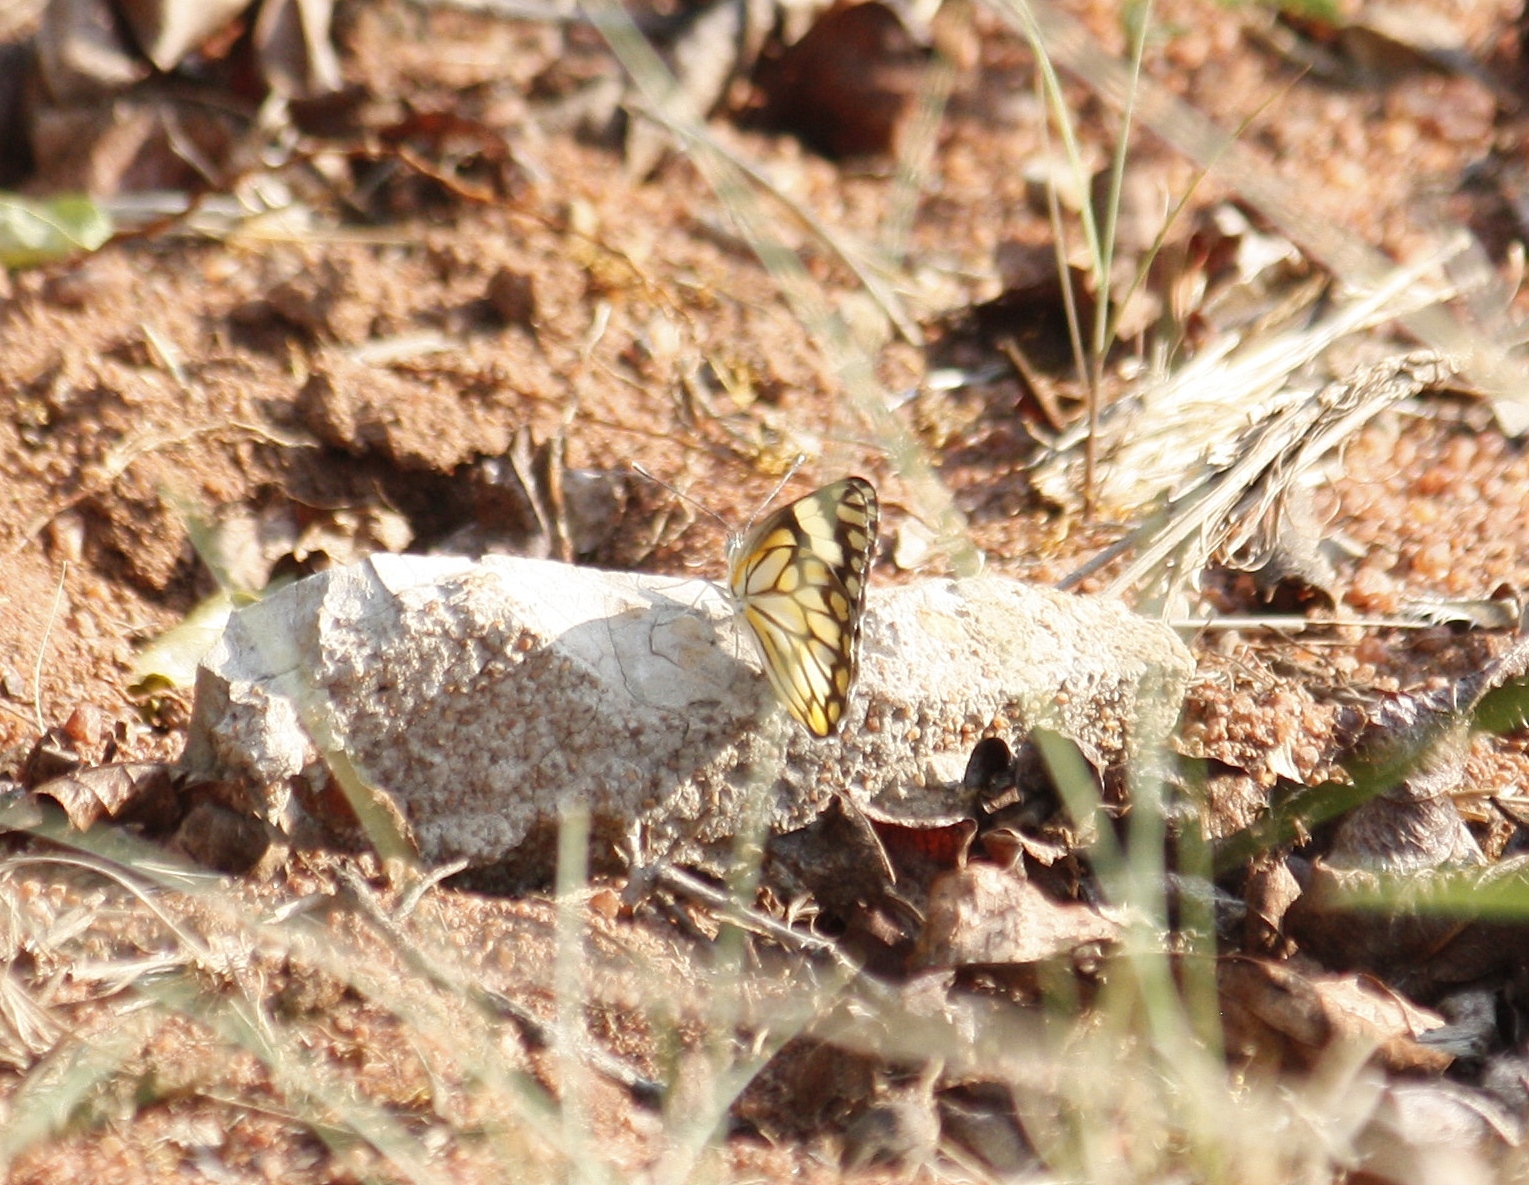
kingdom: Animalia
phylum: Arthropoda
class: Insecta
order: Lepidoptera
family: Pieridae
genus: Belenois
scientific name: Belenois aurota
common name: Brown-veined white
